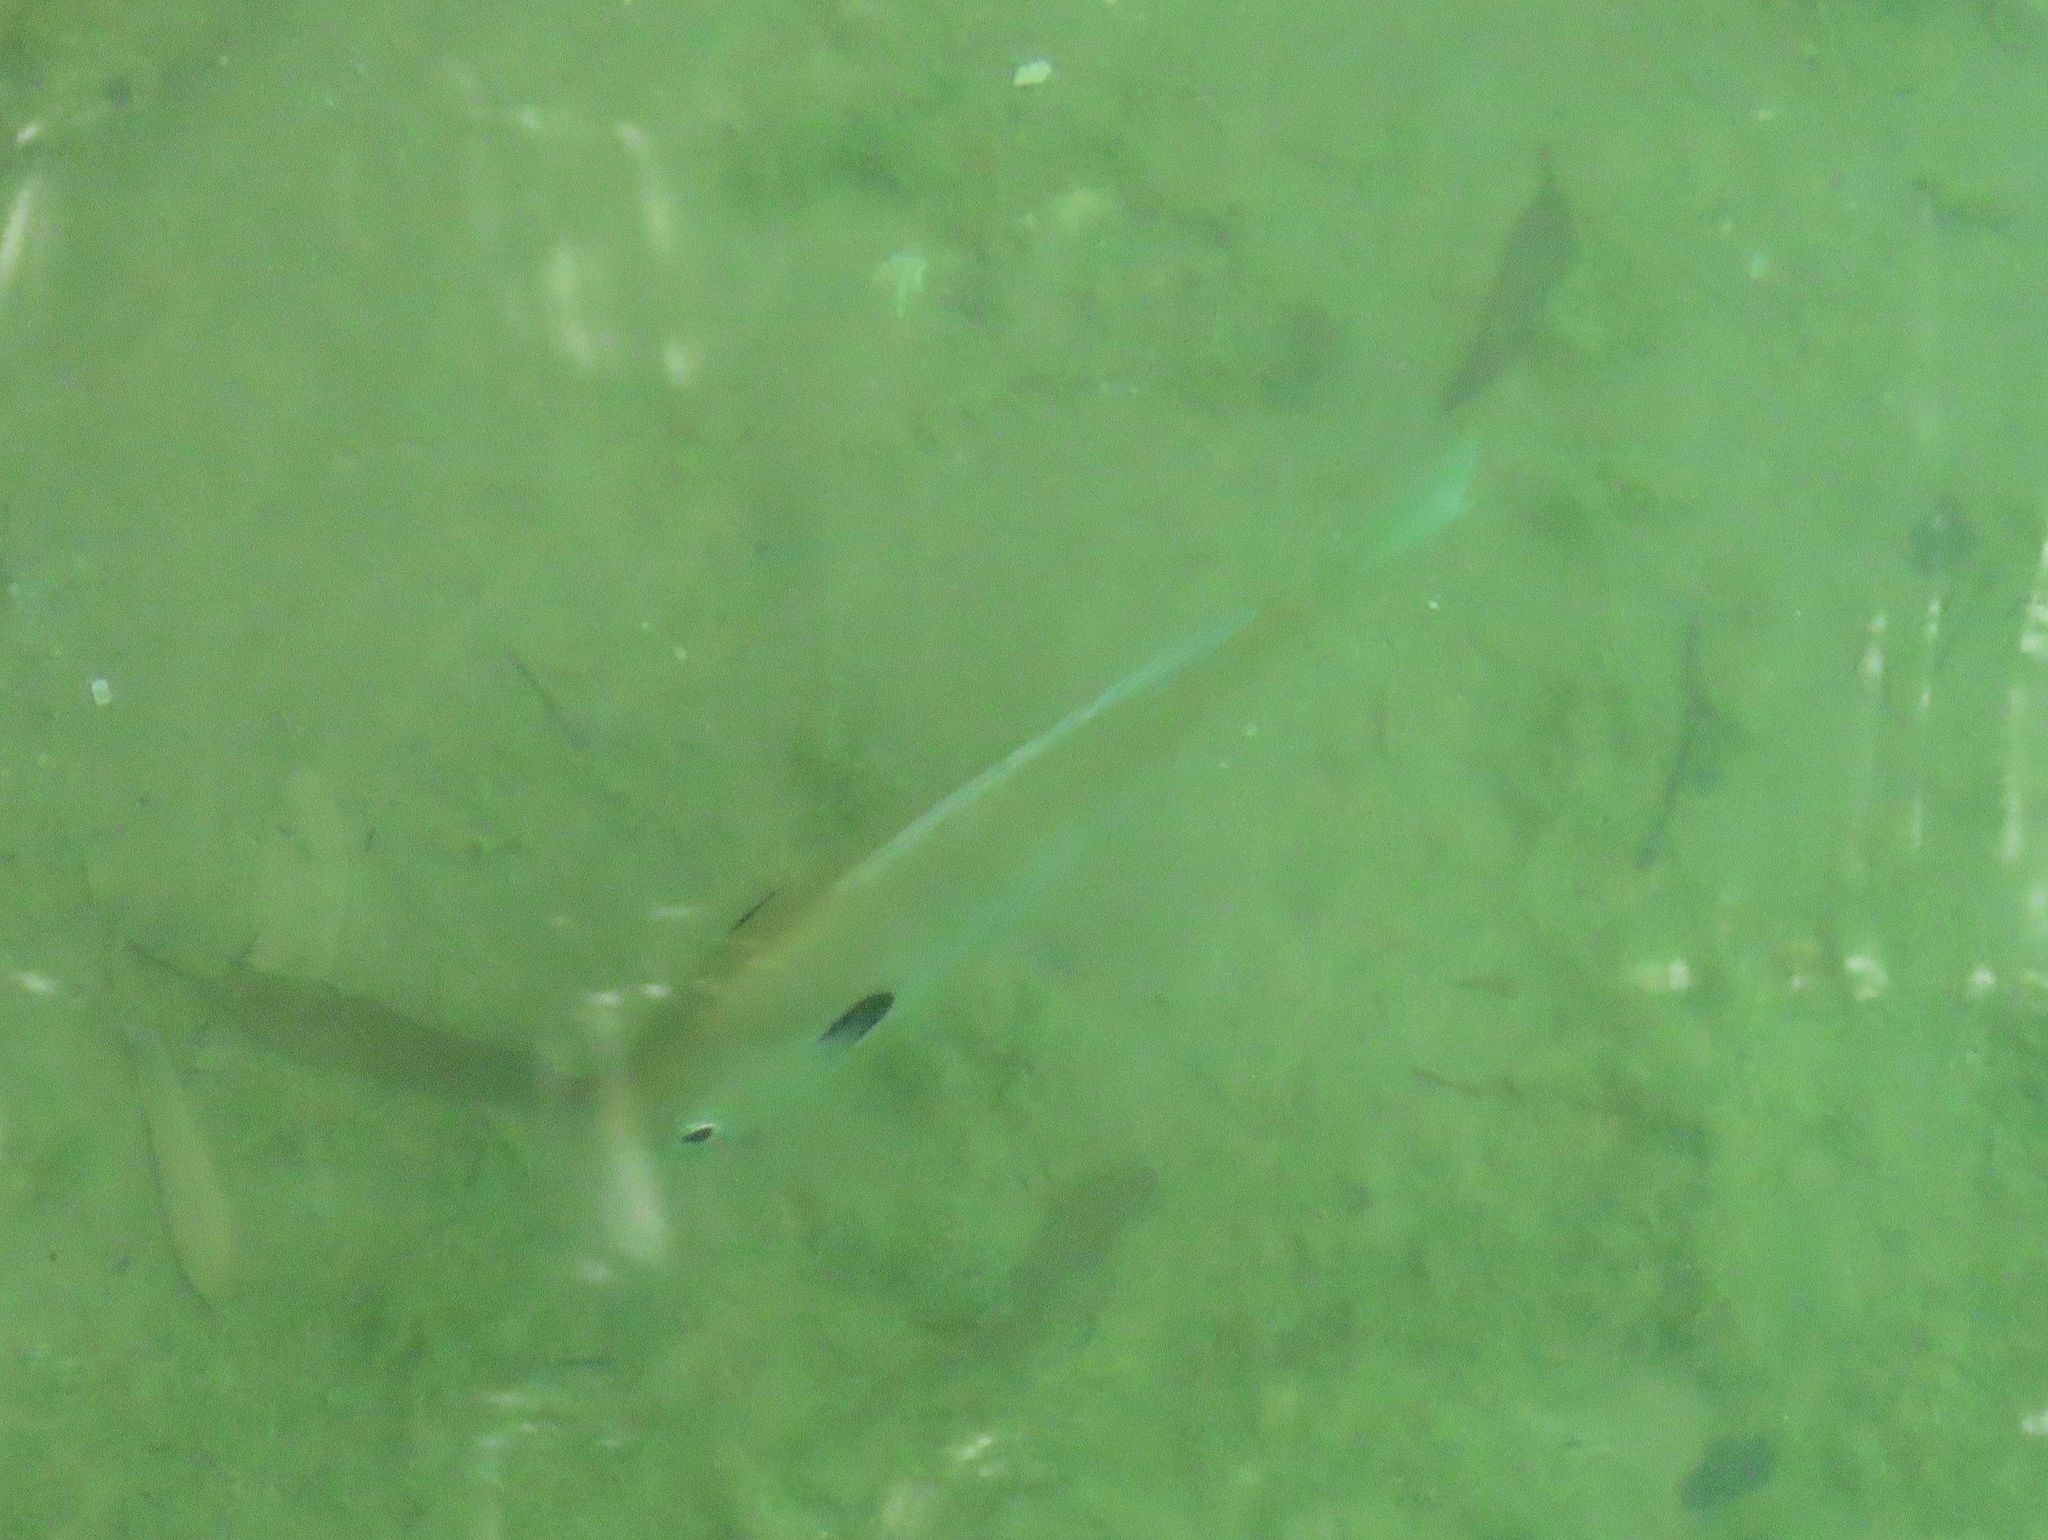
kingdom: Animalia
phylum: Chordata
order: Perciformes
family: Centrarchidae
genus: Lepomis
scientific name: Lepomis macrochirus
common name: Bluegill
